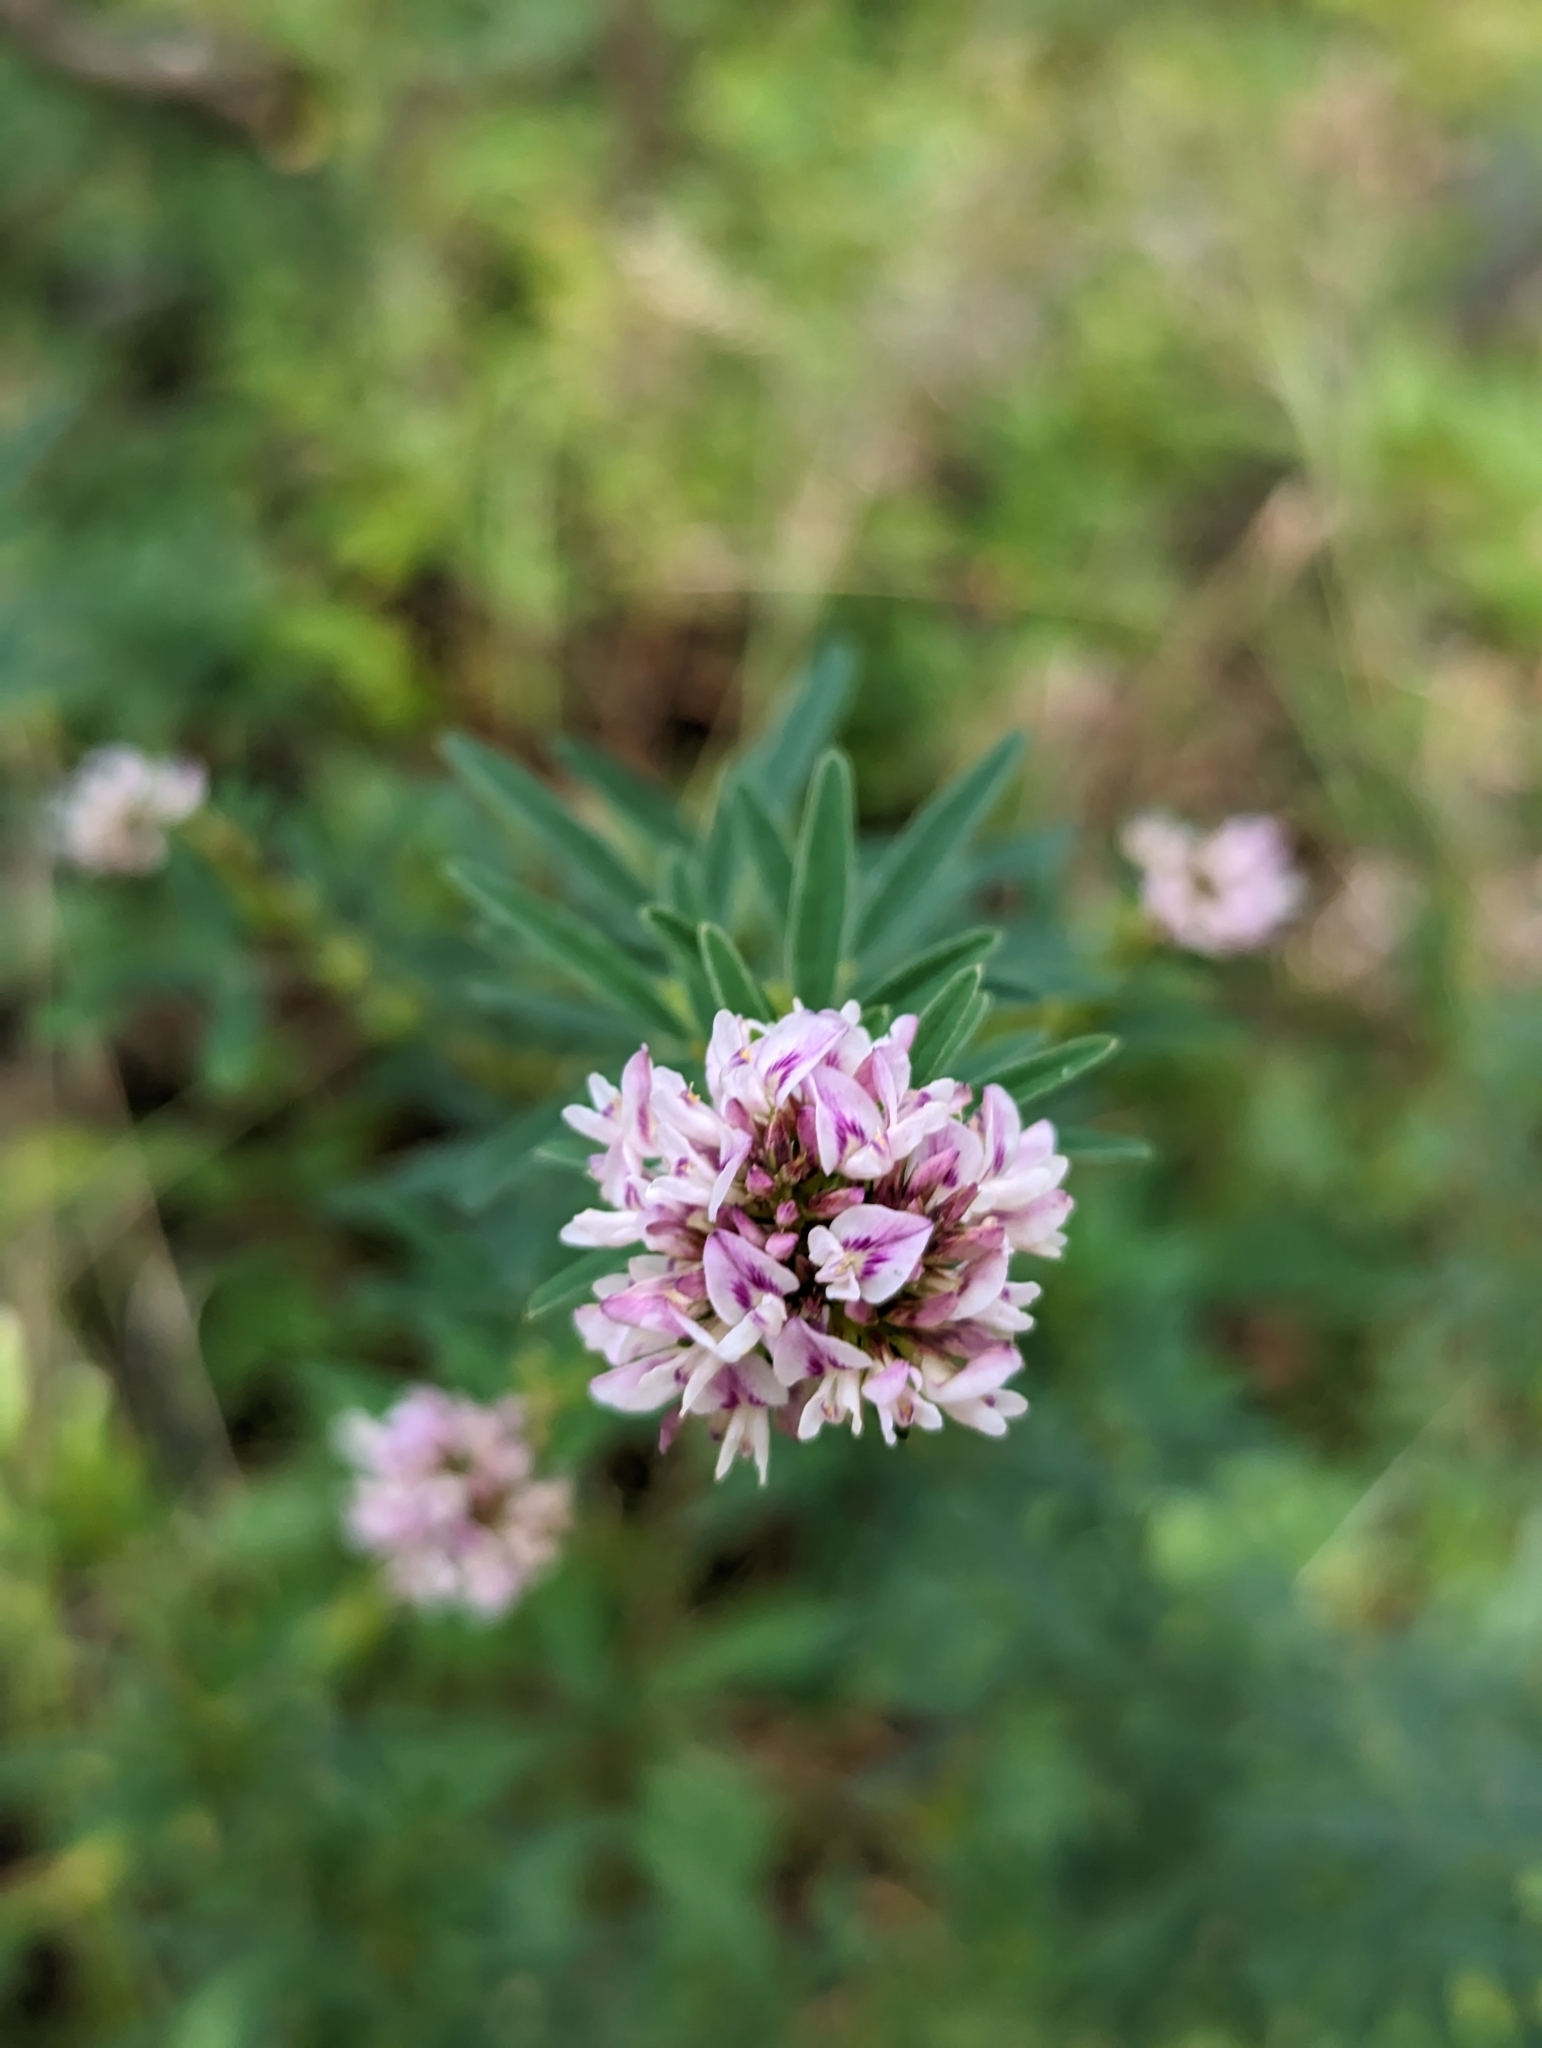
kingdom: Plantae
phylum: Tracheophyta
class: Magnoliopsida
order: Fabales
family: Fabaceae
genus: Lespedeza
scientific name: Lespedeza virginica
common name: Slender bush-clover
